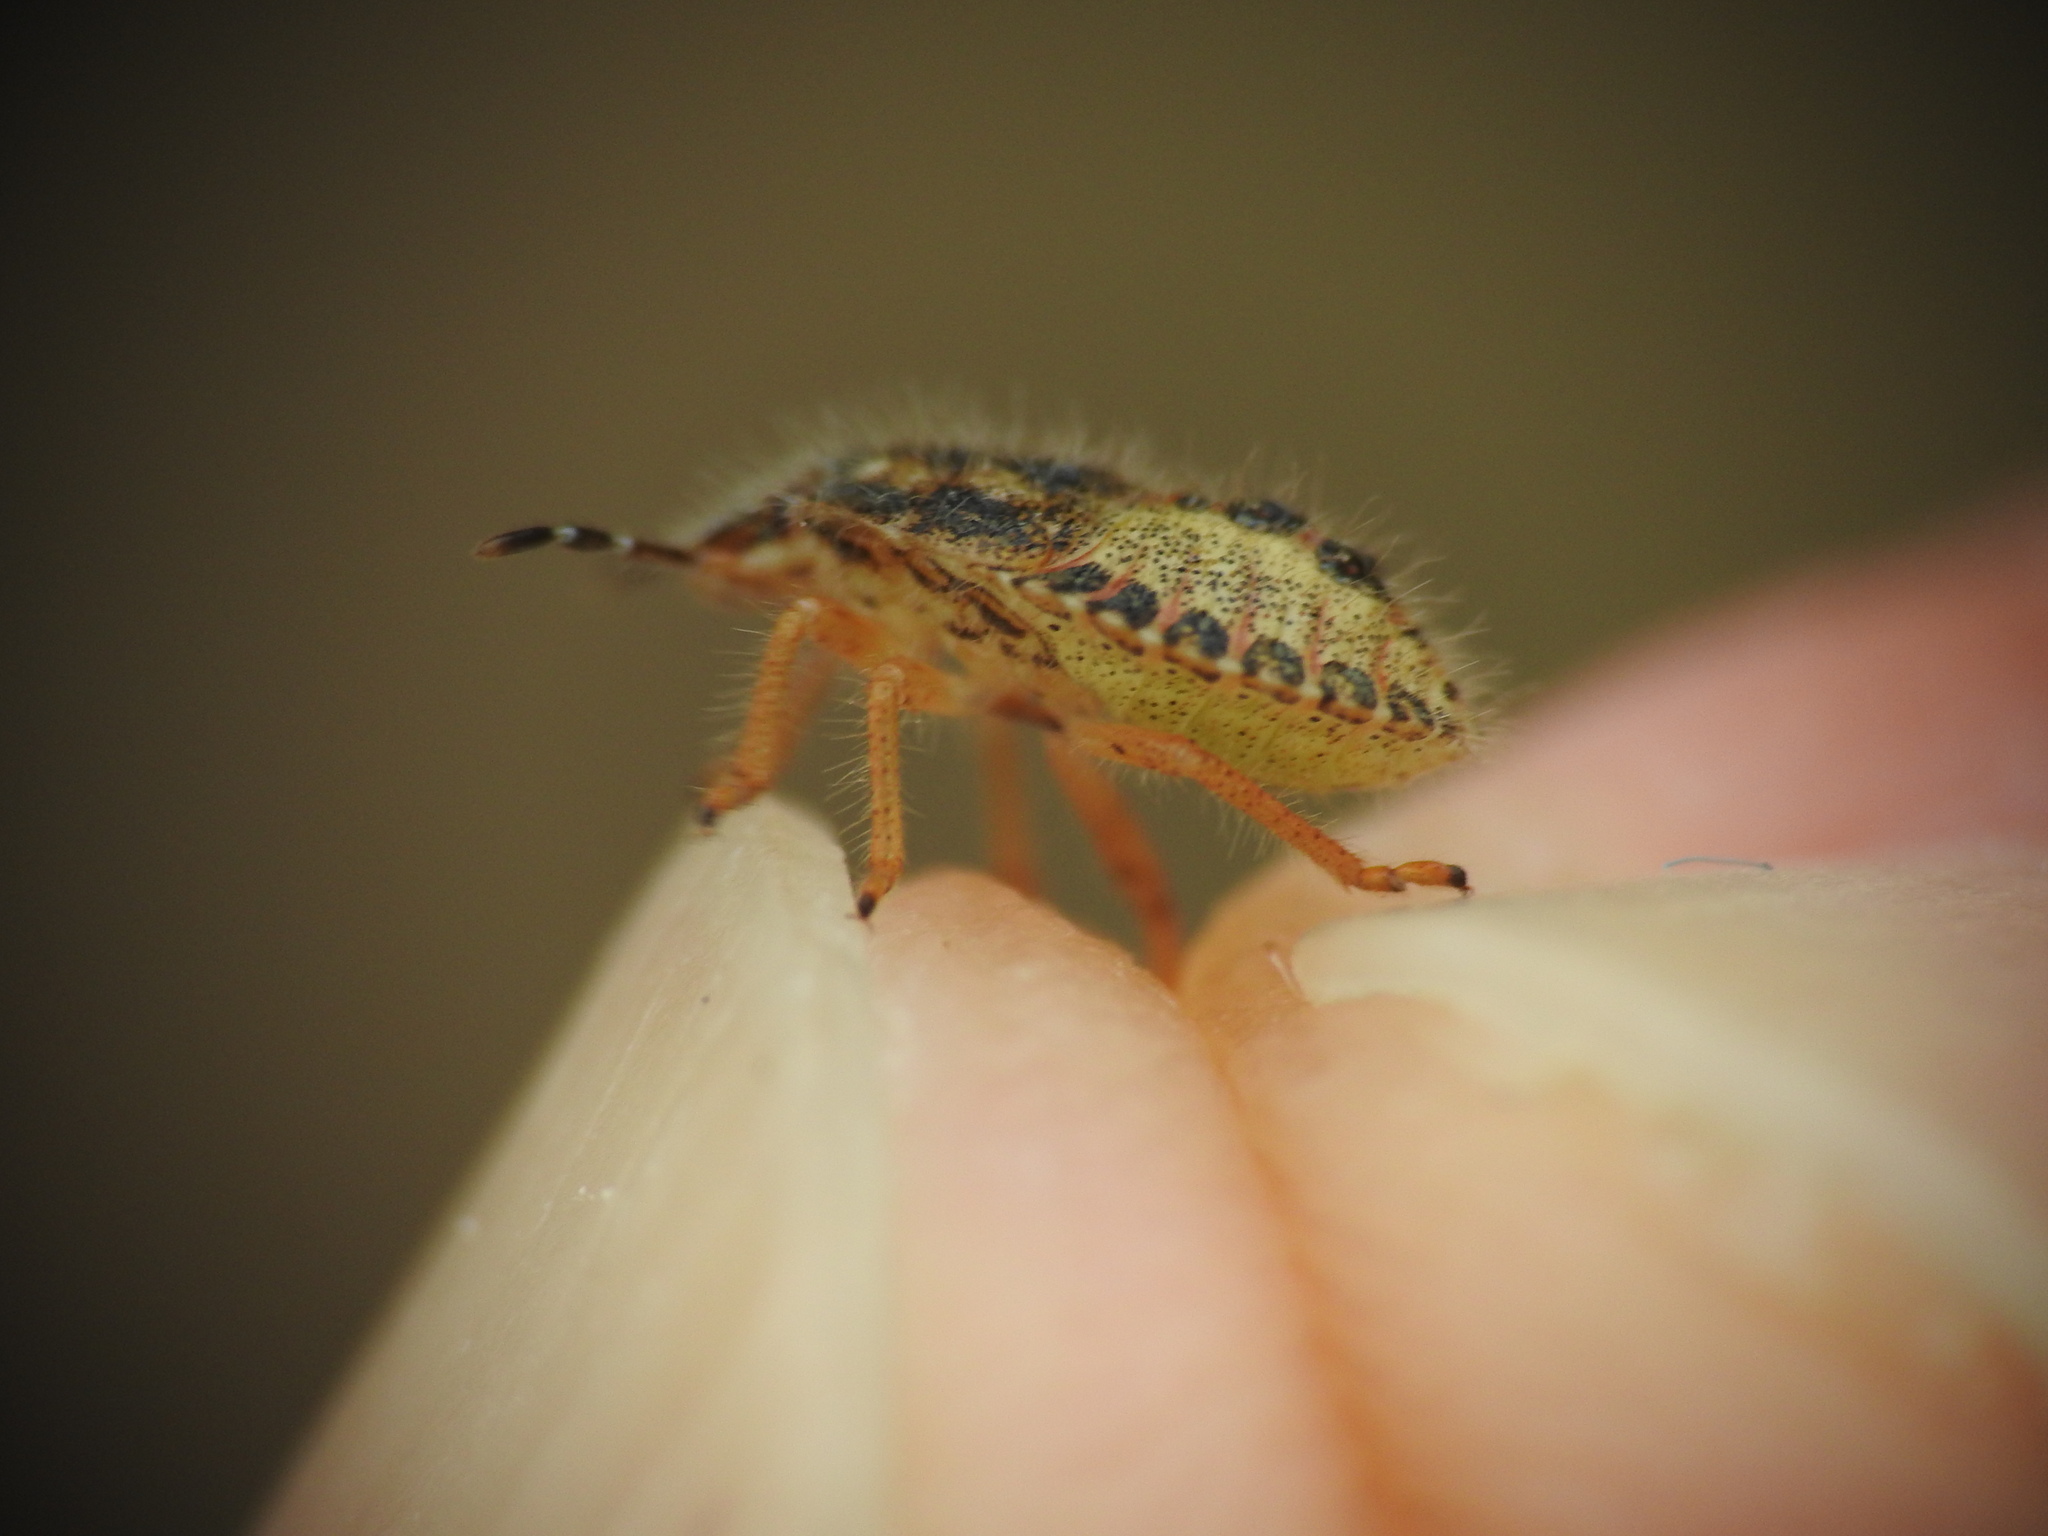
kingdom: Animalia
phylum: Arthropoda
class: Insecta
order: Hemiptera
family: Pentatomidae
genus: Dolycoris
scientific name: Dolycoris baccarum
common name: Sloe bug
